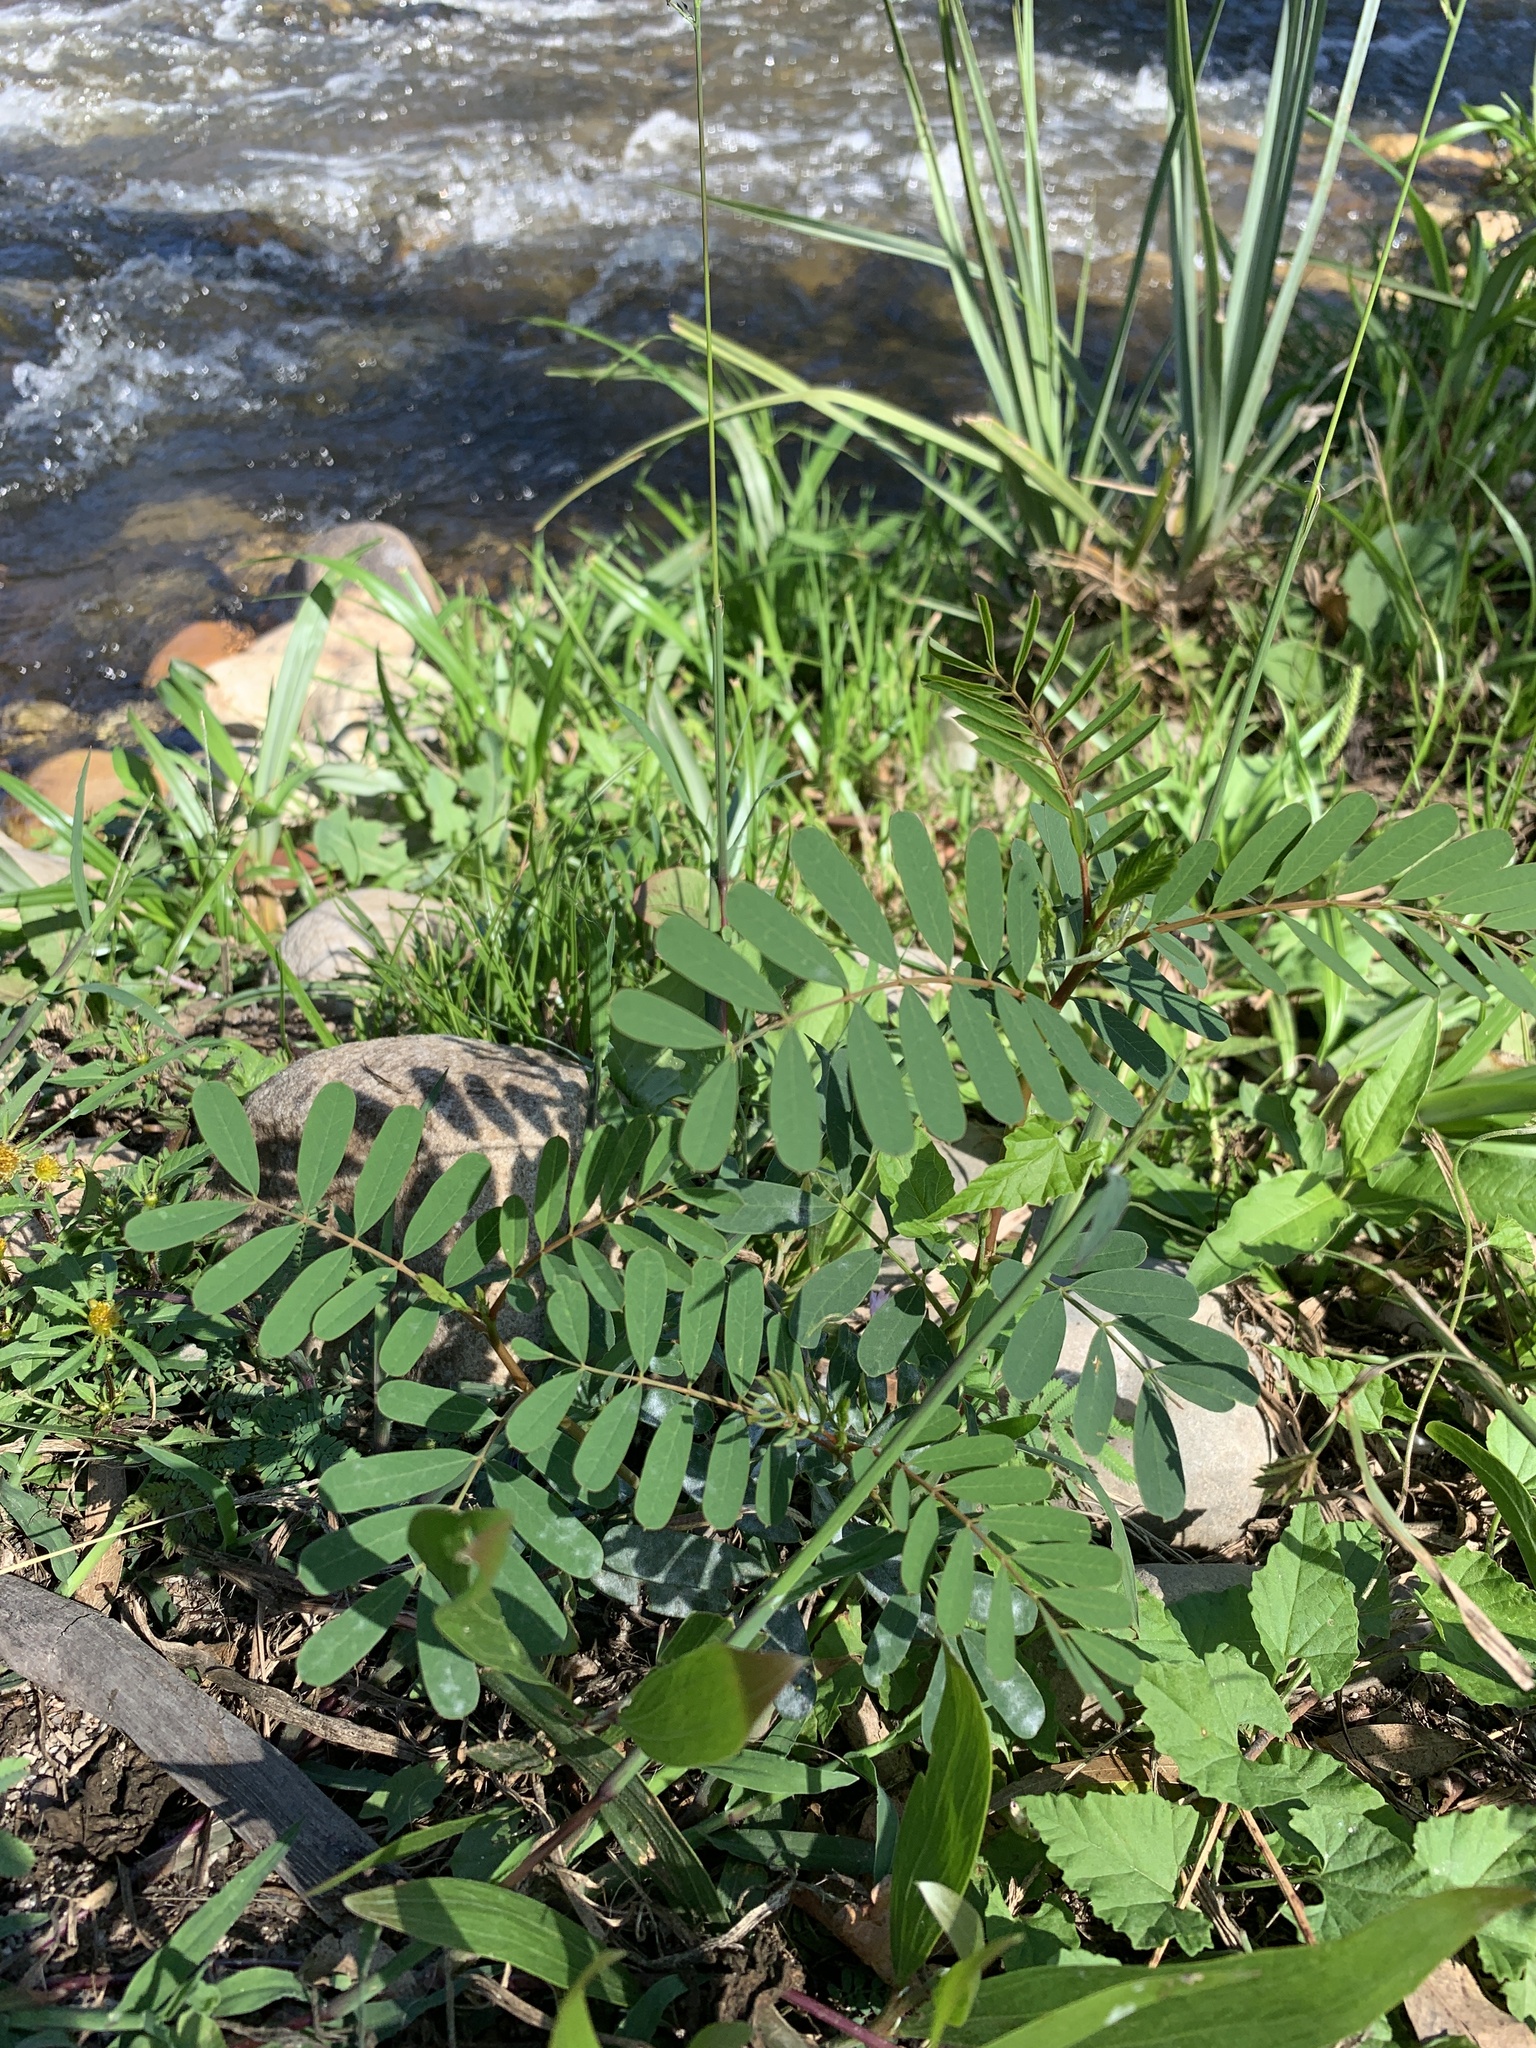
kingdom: Plantae
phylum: Tracheophyta
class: Magnoliopsida
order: Fabales
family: Fabaceae
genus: Sesbania
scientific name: Sesbania punicea
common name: Rattlebox
